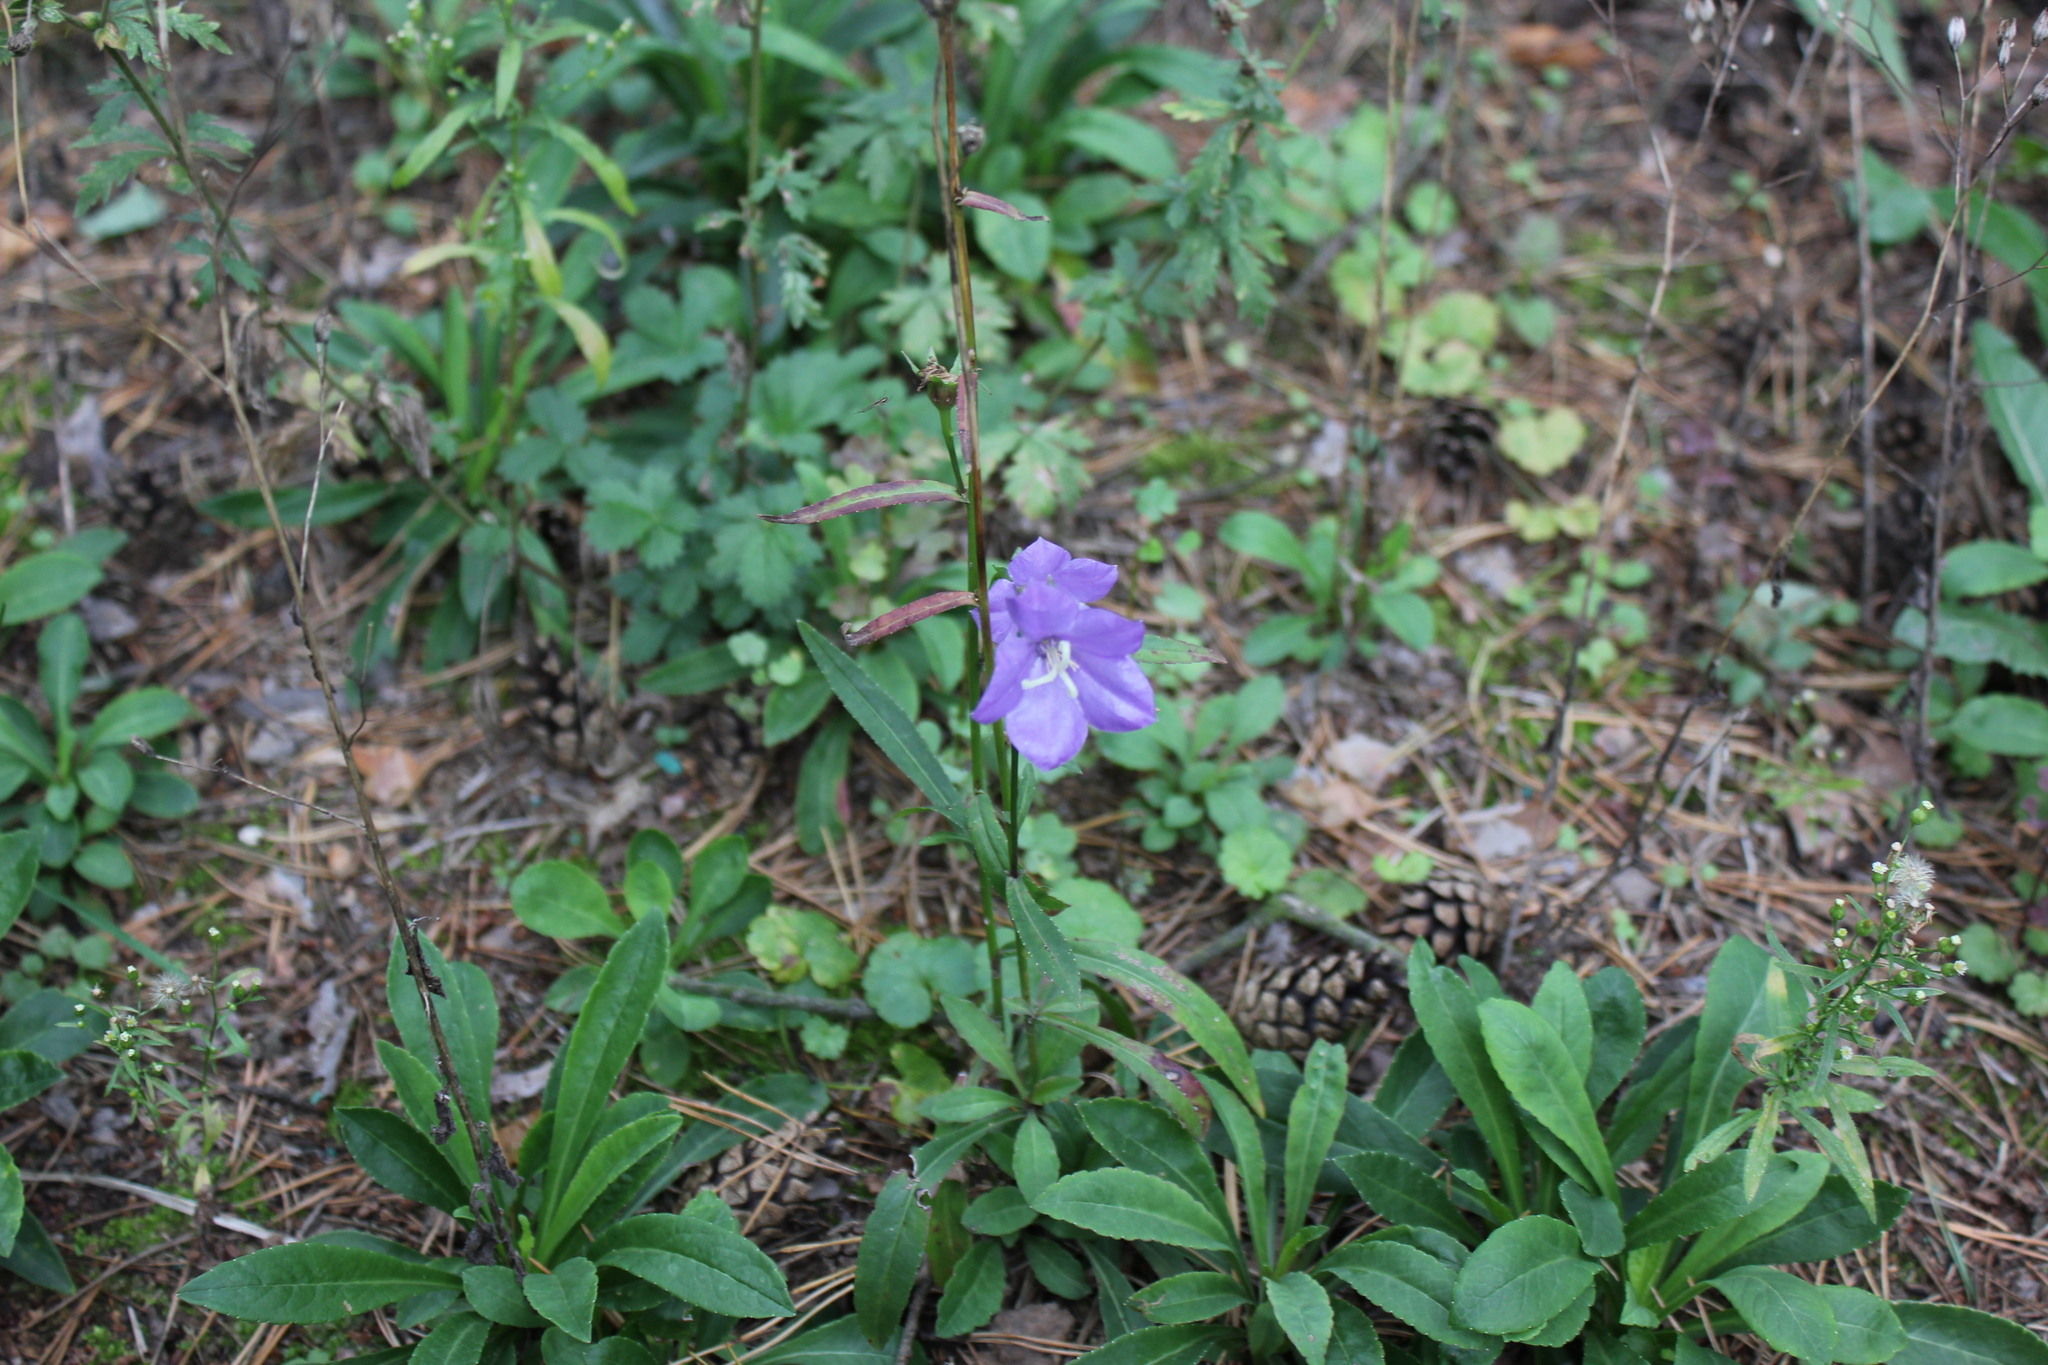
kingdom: Plantae
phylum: Tracheophyta
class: Magnoliopsida
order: Asterales
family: Campanulaceae
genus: Campanula
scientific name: Campanula persicifolia
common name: Peach-leaved bellflower
